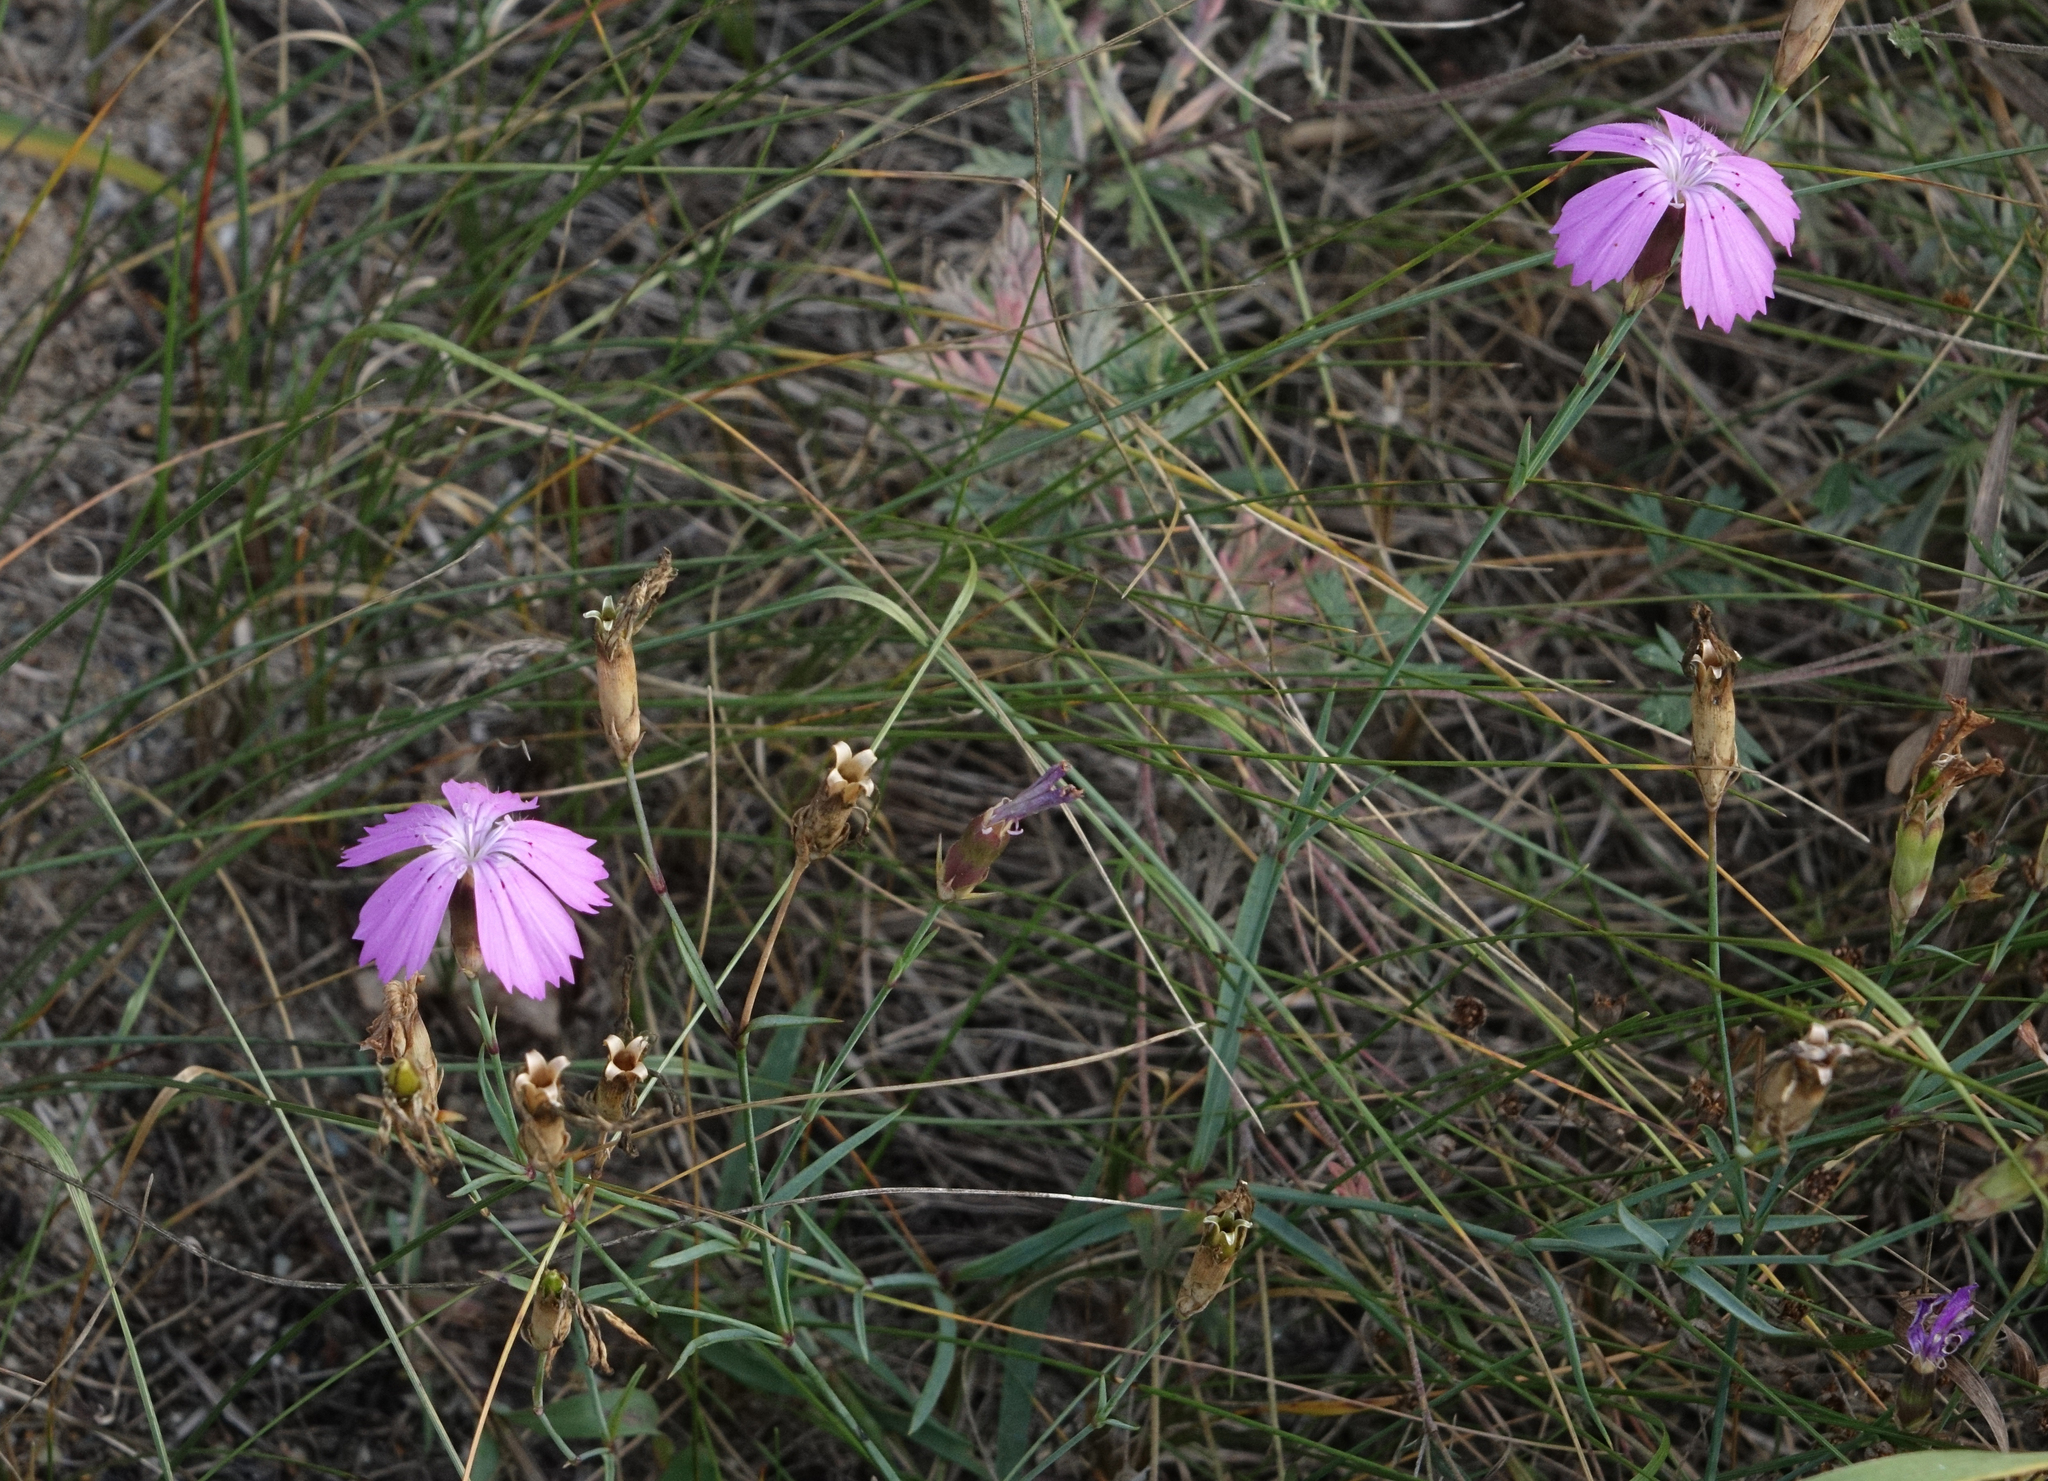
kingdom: Plantae
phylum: Tracheophyta
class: Magnoliopsida
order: Caryophyllales
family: Caryophyllaceae
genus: Dianthus
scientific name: Dianthus chinensis
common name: Rainbow pink
